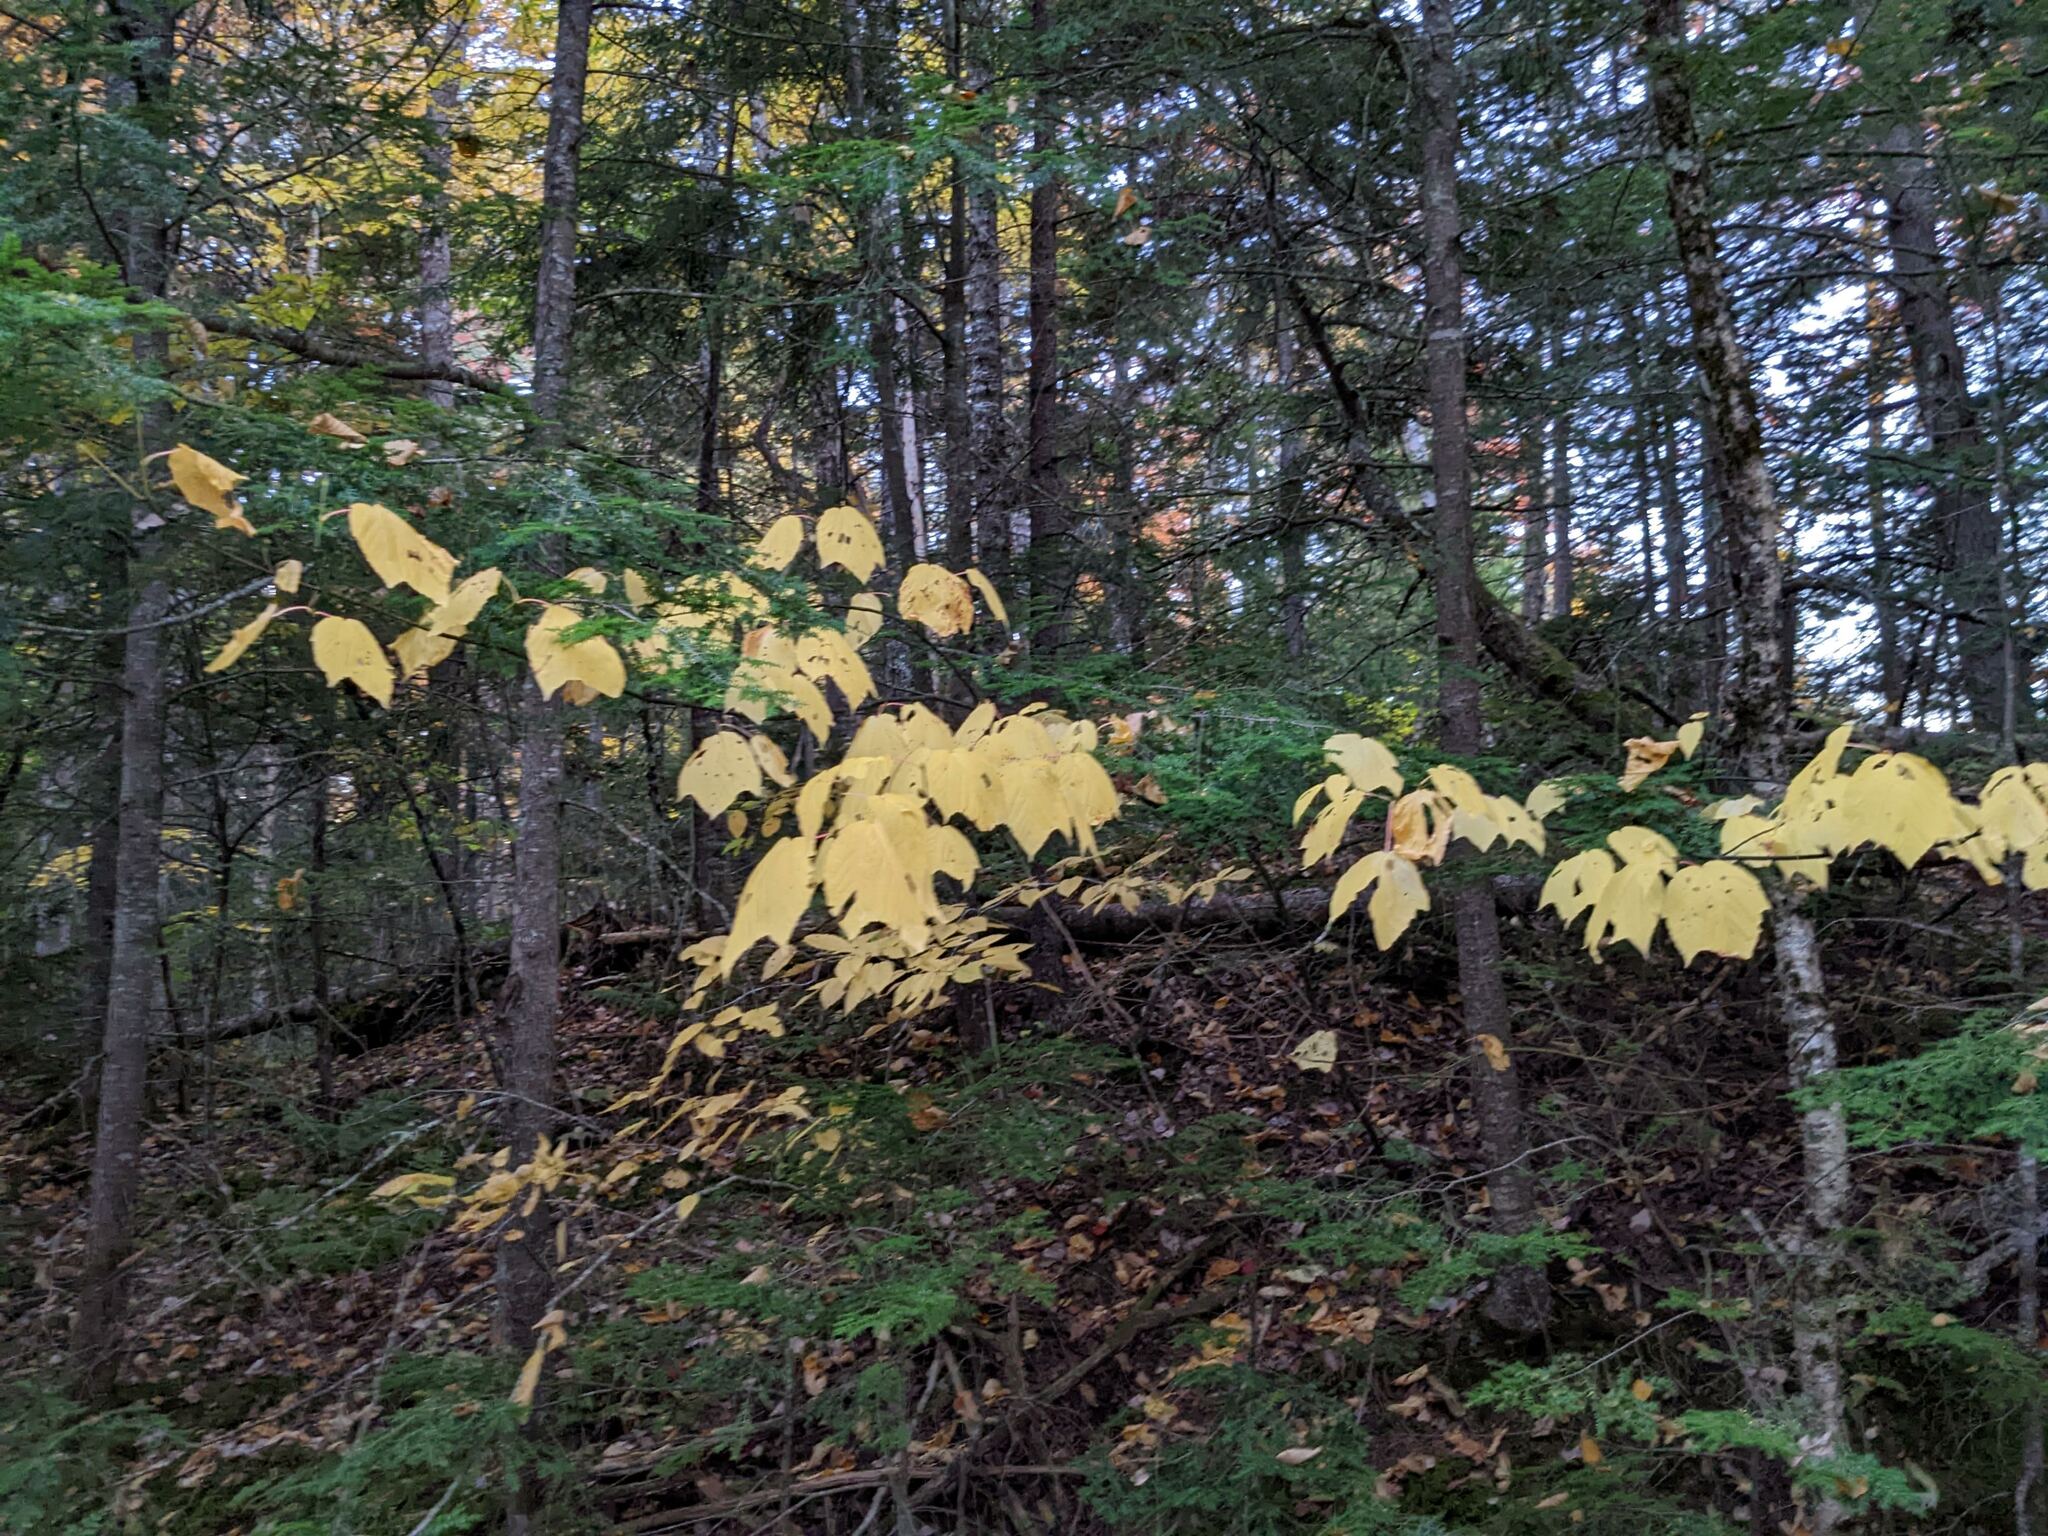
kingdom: Plantae
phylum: Tracheophyta
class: Magnoliopsida
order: Sapindales
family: Sapindaceae
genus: Acer
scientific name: Acer pensylvanicum
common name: Moosewood
